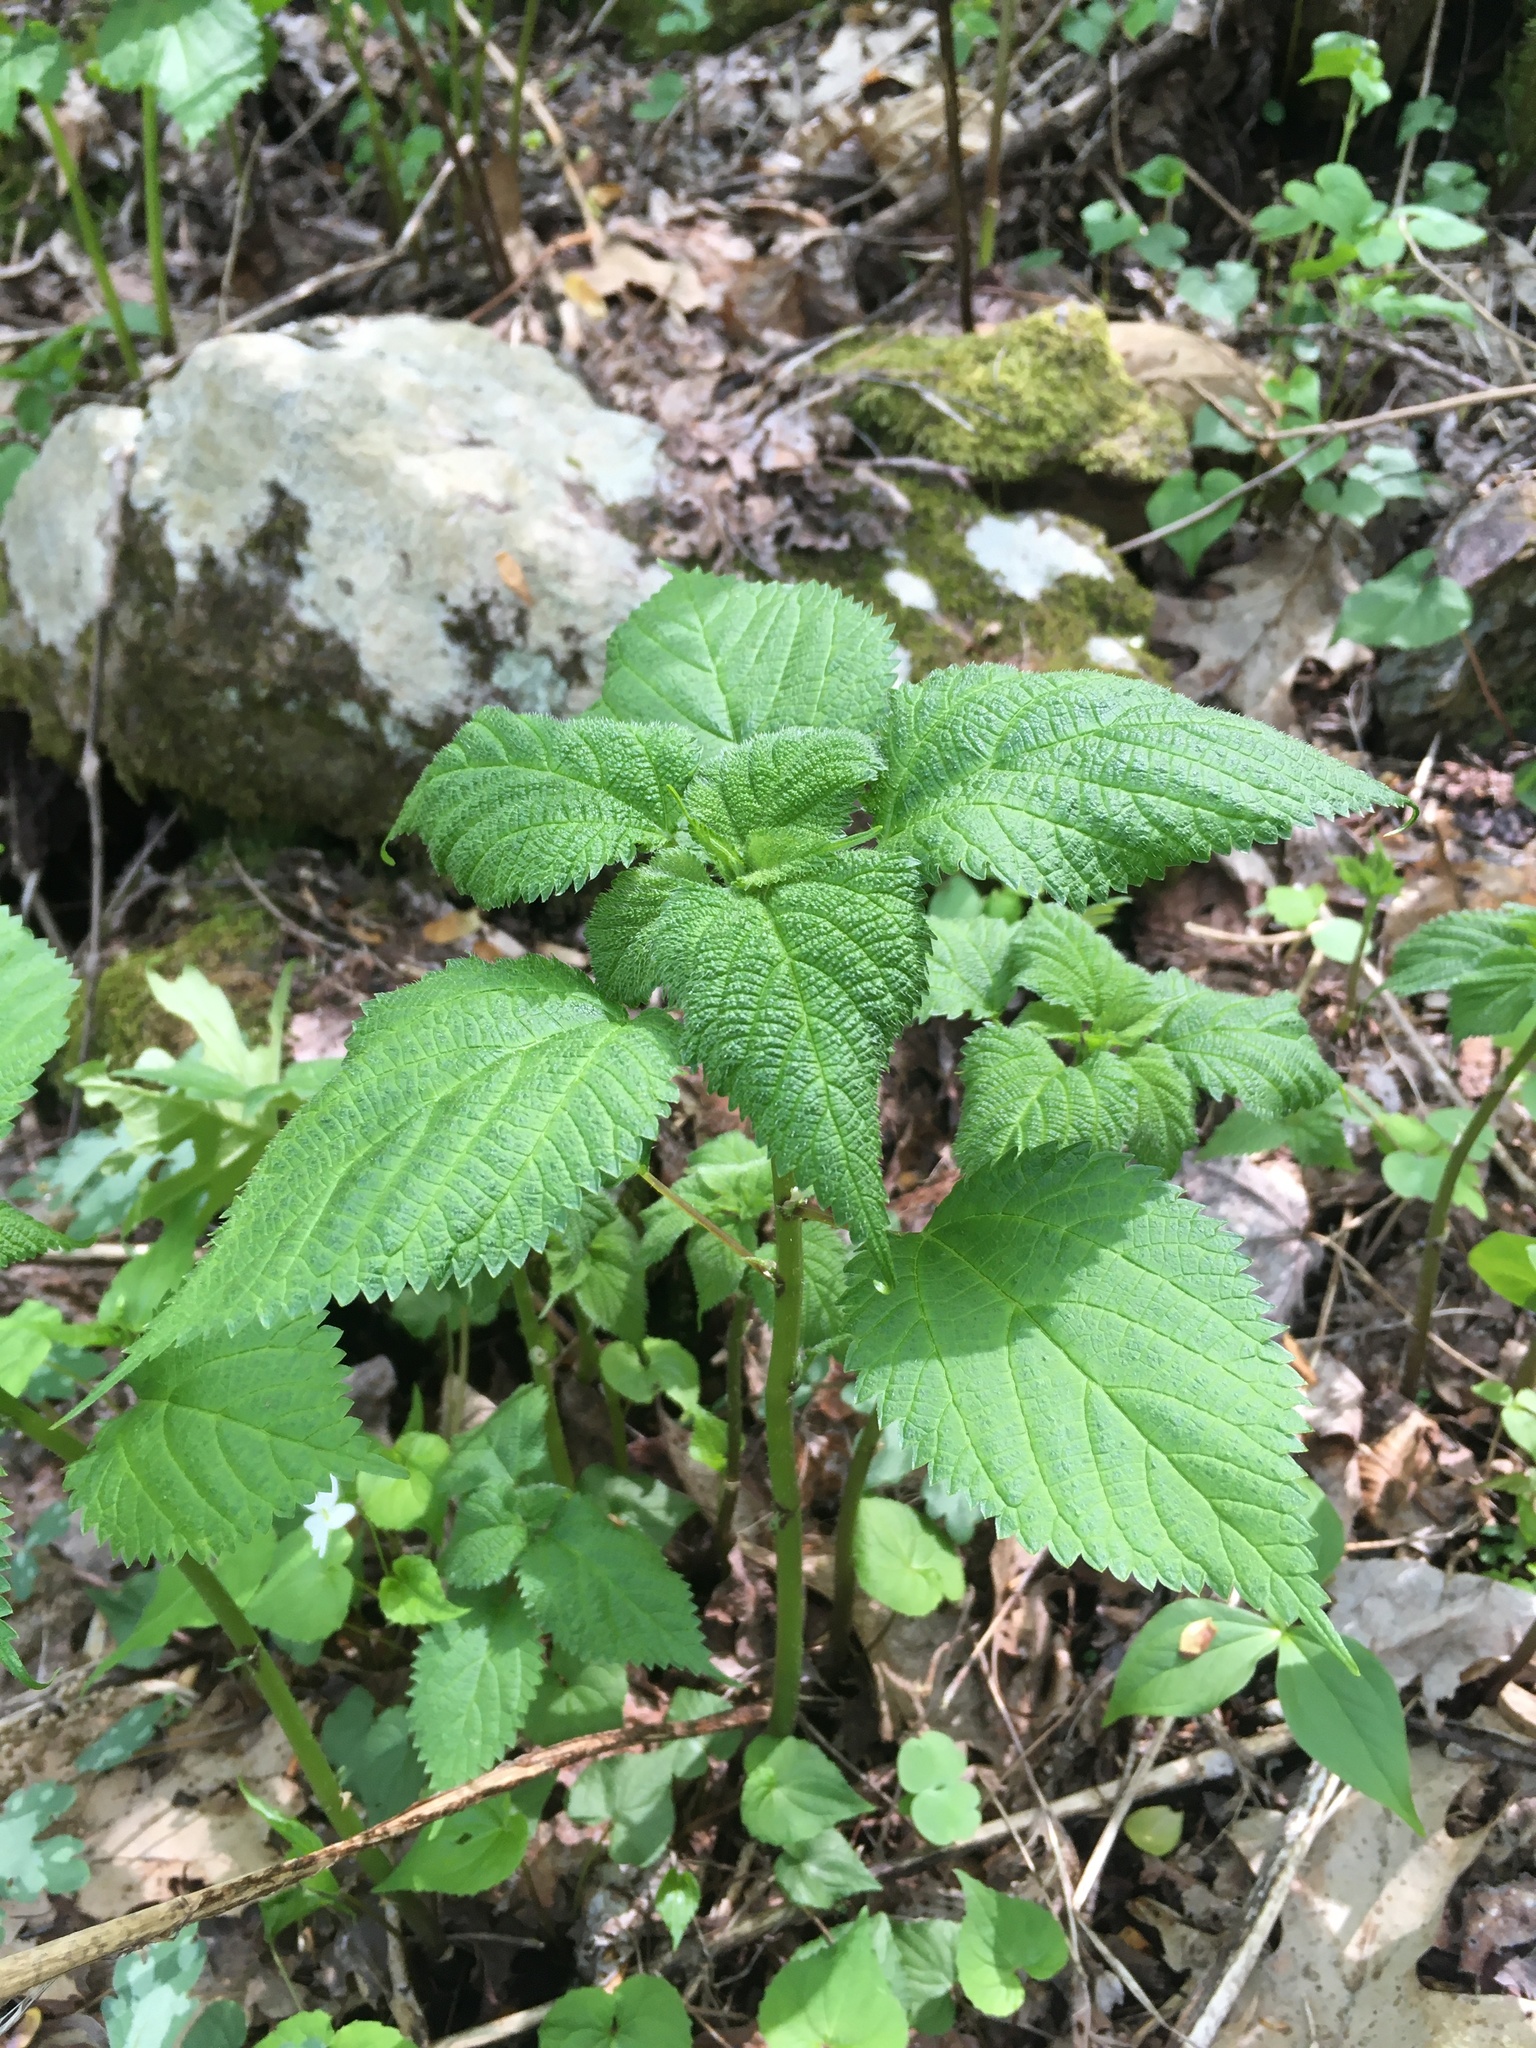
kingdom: Plantae
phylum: Tracheophyta
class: Magnoliopsida
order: Rosales
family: Urticaceae
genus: Laportea
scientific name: Laportea canadensis
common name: Canada nettle
